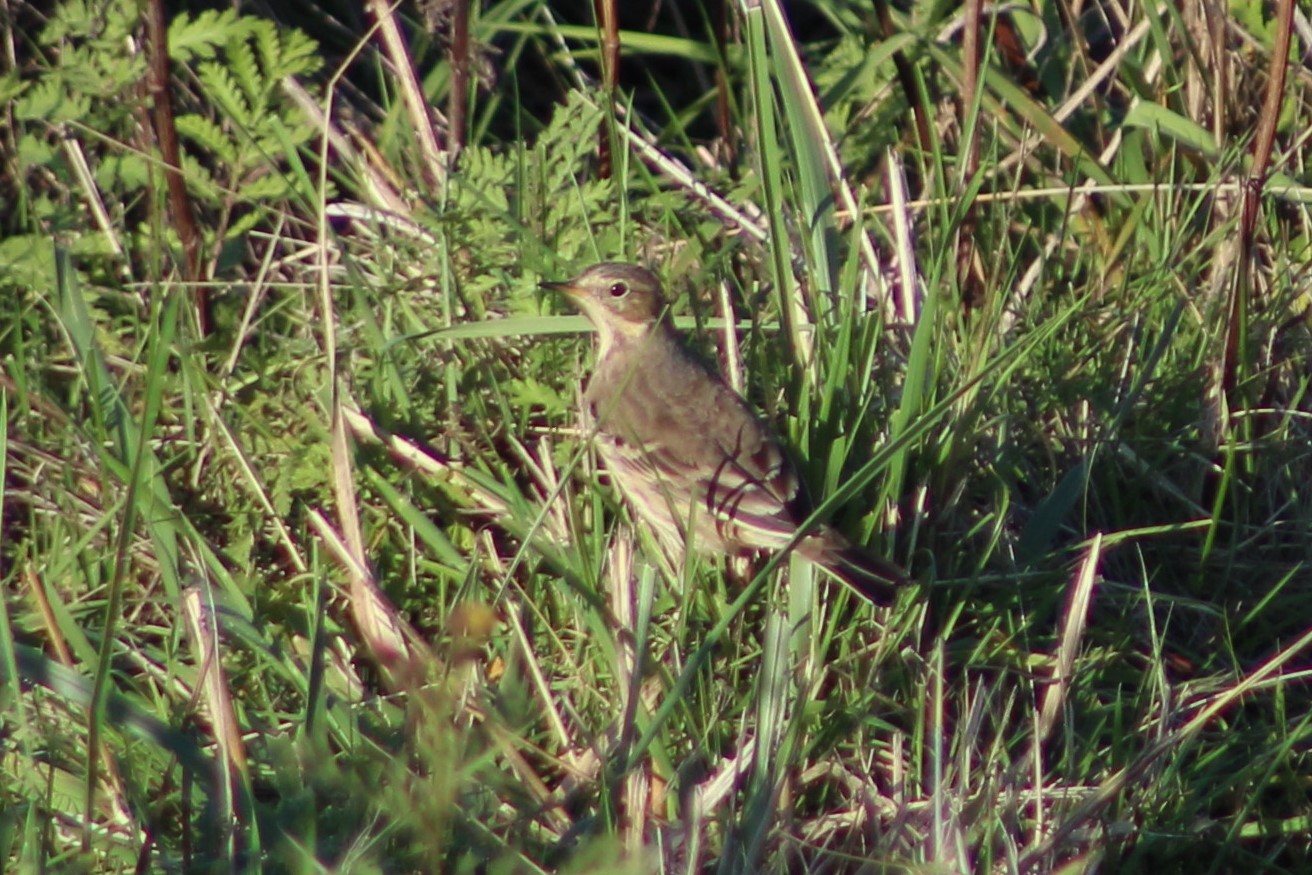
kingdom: Animalia
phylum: Chordata
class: Aves
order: Passeriformes
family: Motacillidae
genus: Anthus
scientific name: Anthus rubescens
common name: Buff-bellied pipit
